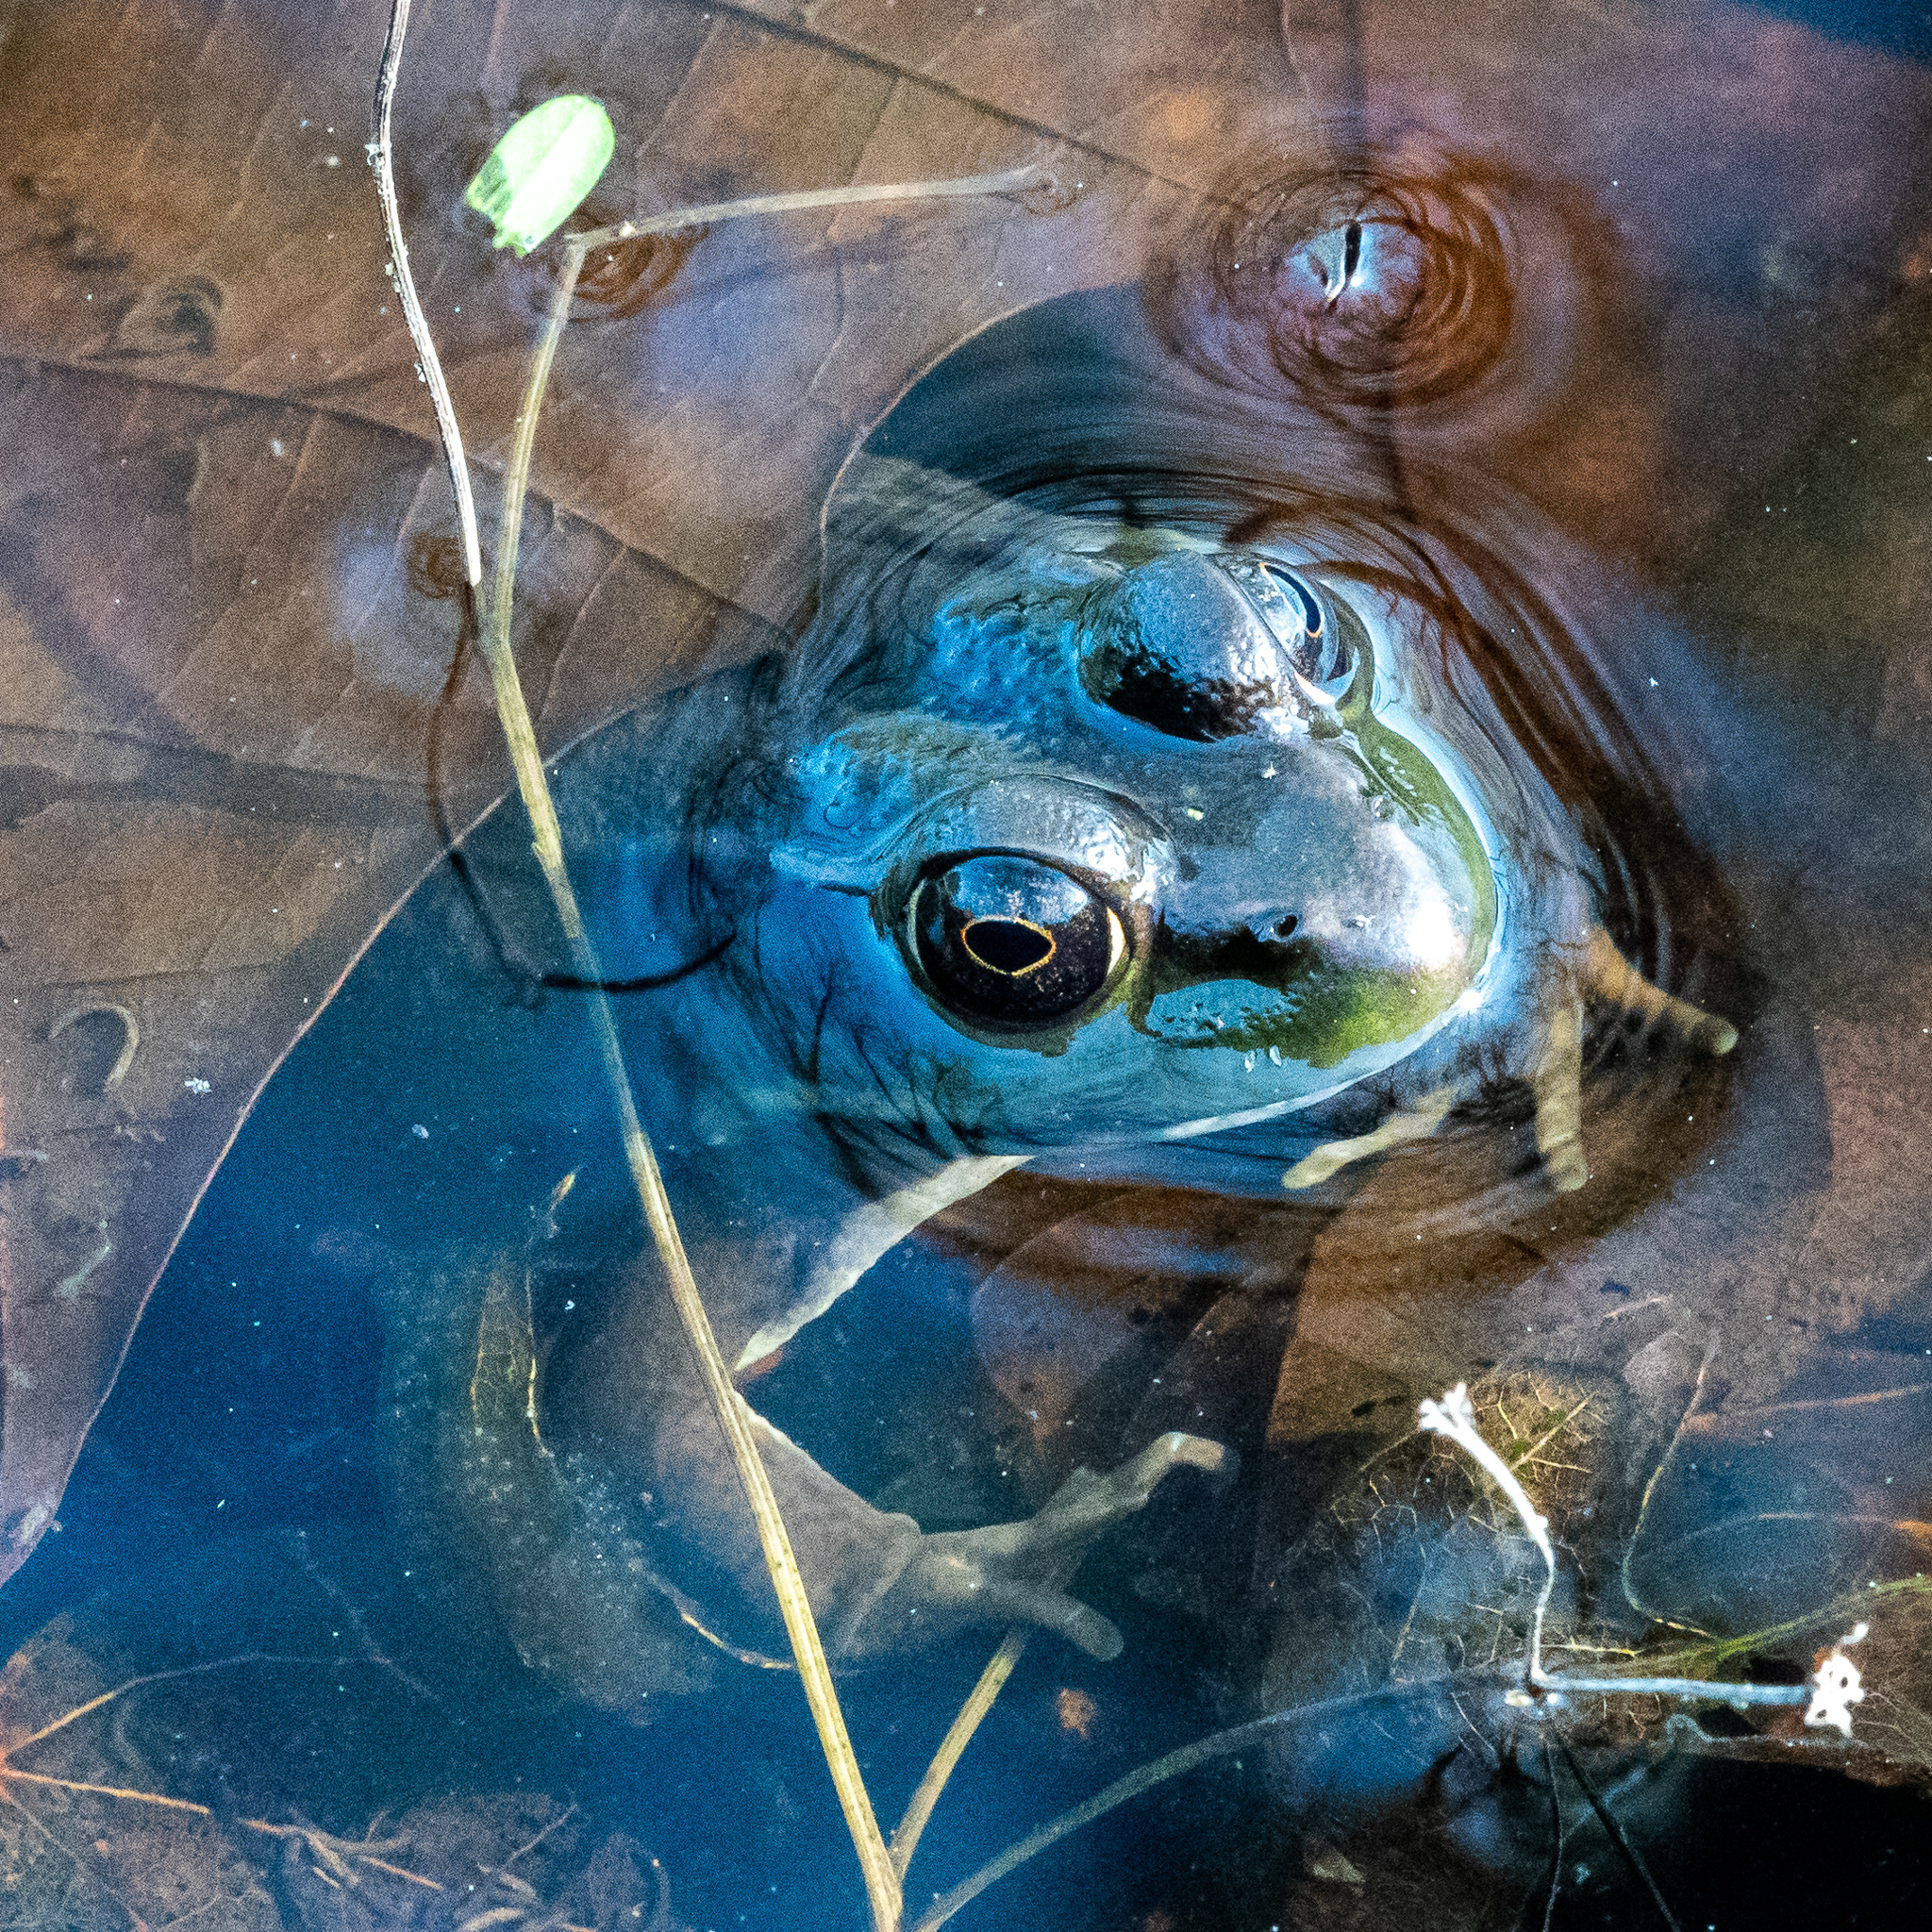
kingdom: Animalia
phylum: Chordata
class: Amphibia
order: Anura
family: Ranidae
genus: Lithobates
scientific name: Lithobates clamitans
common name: Green frog
